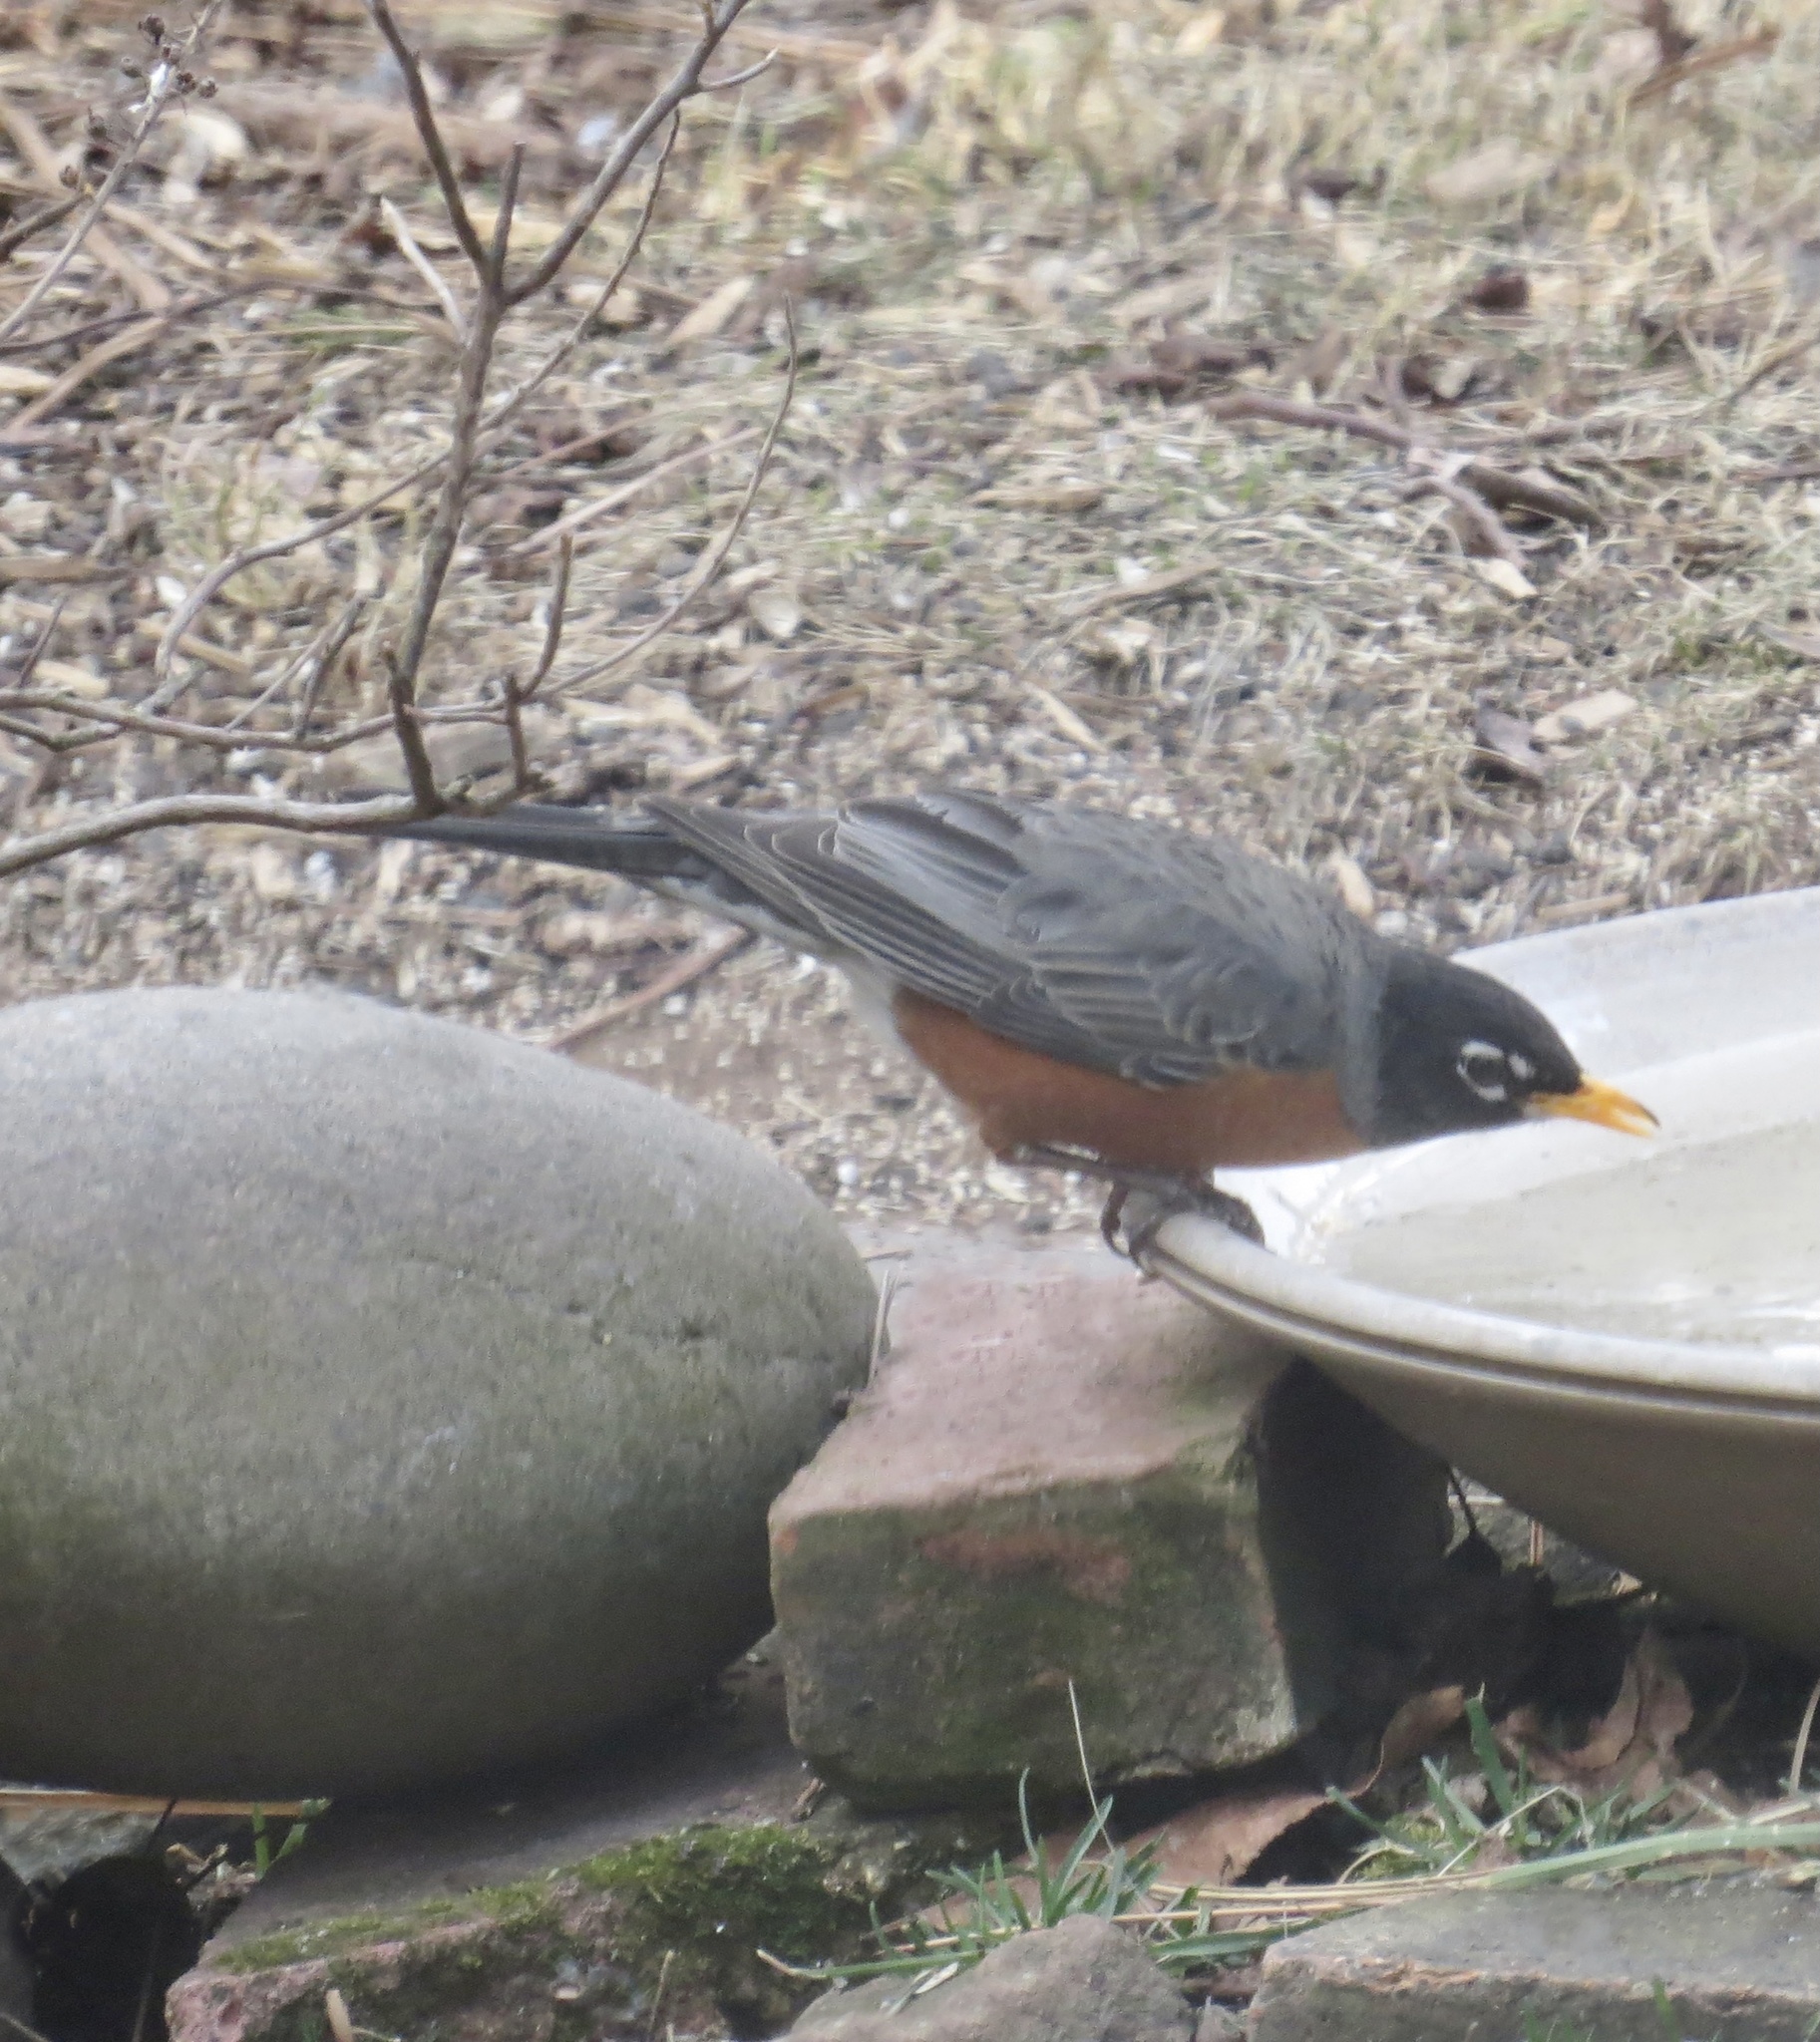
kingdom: Animalia
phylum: Chordata
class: Aves
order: Passeriformes
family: Turdidae
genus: Turdus
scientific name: Turdus migratorius
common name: American robin
